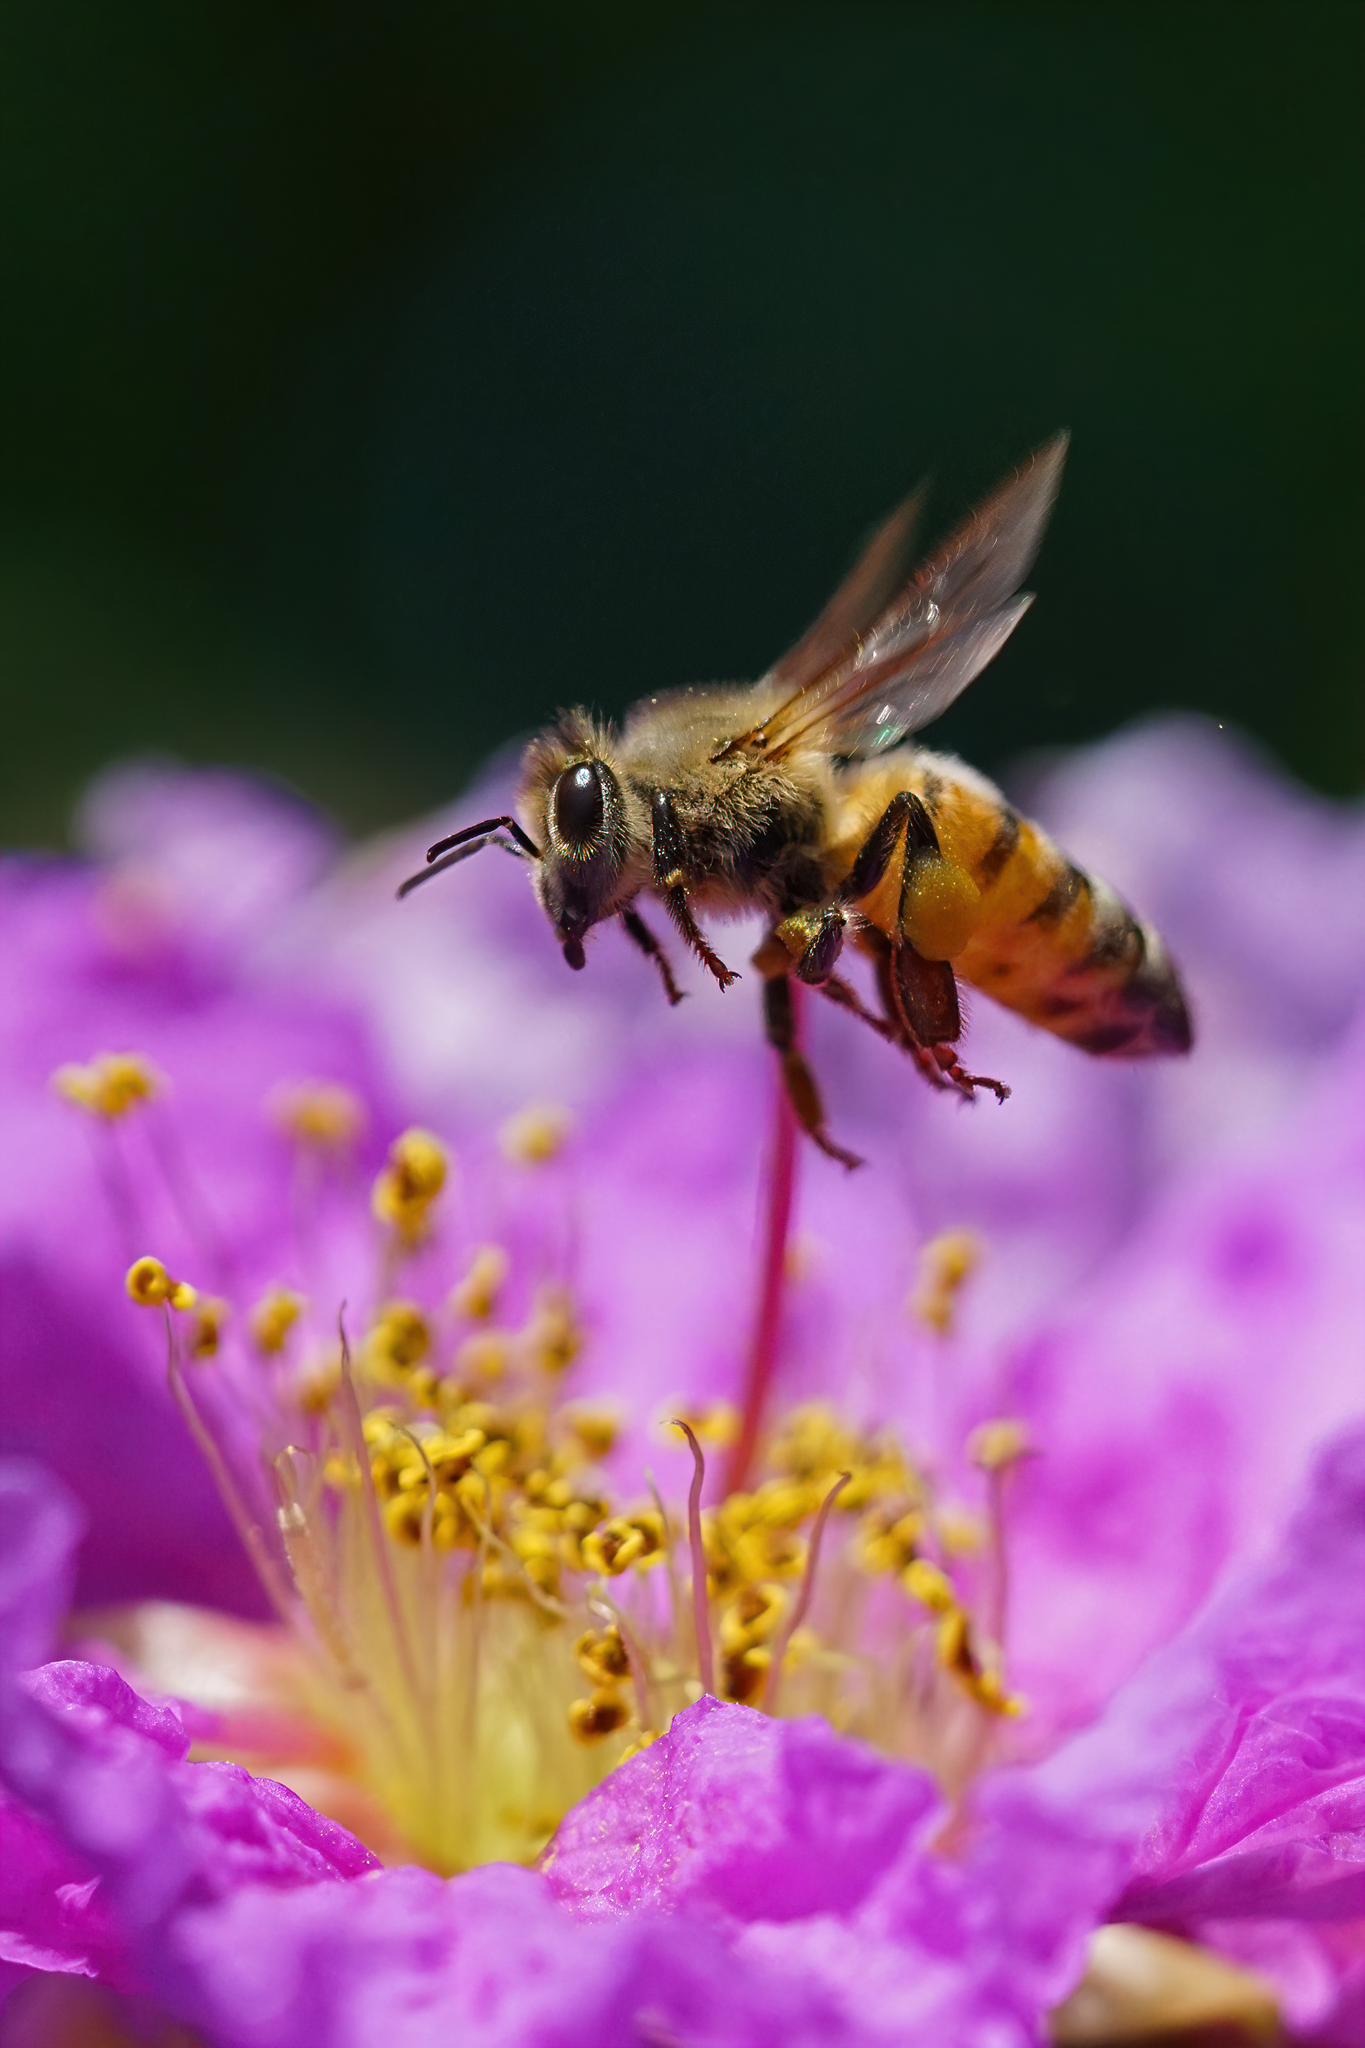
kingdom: Animalia
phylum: Arthropoda
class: Insecta
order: Hymenoptera
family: Apidae
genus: Apis
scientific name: Apis mellifera
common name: Honey bee
